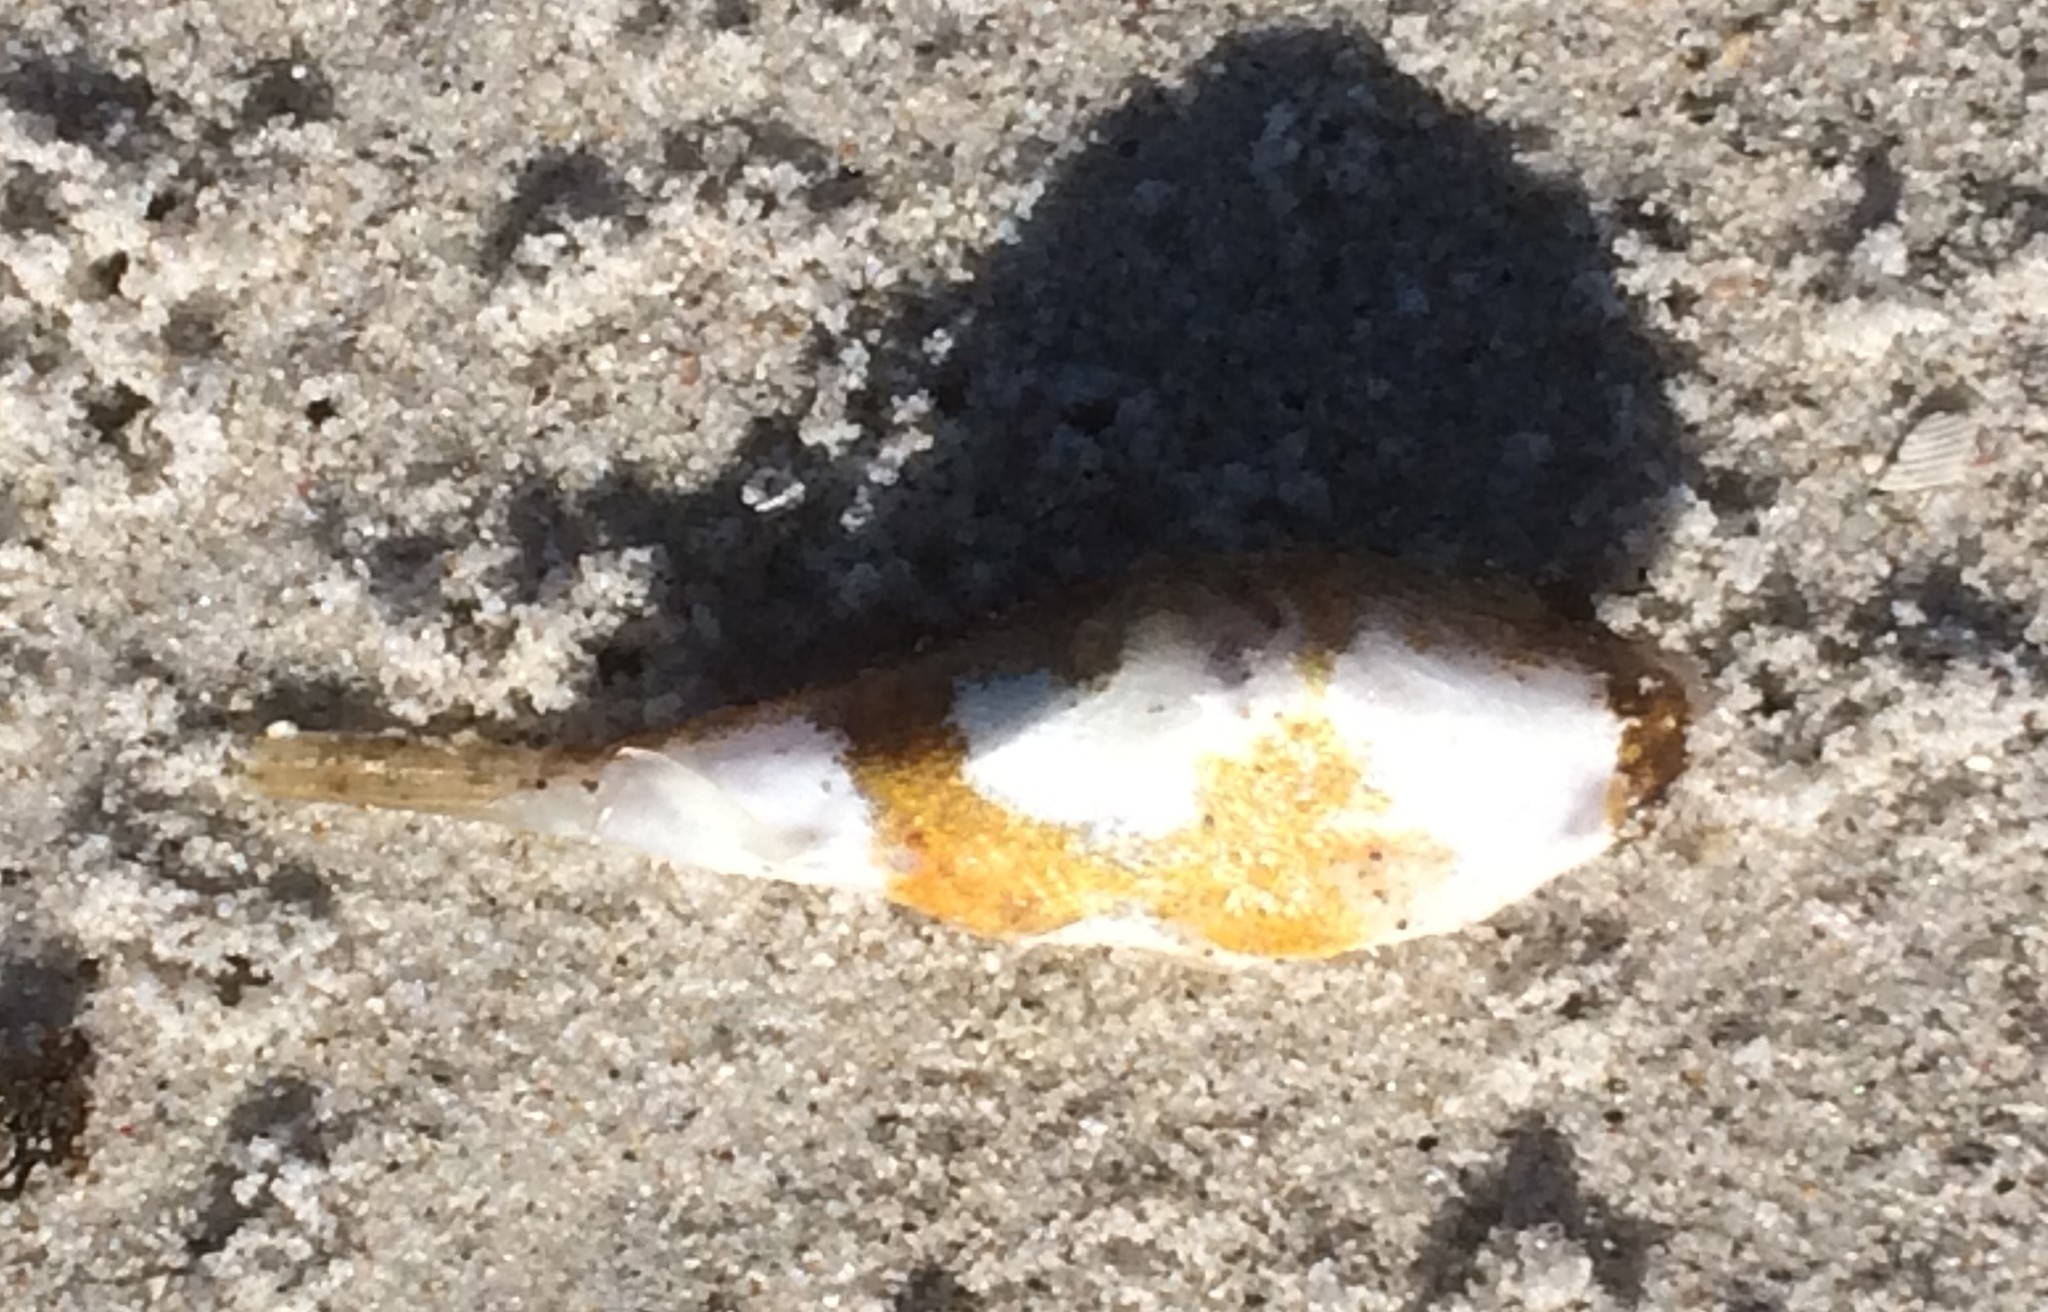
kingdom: Animalia
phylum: Chordata
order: Tetraodontiformes
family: Tetraodontidae
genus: Polyspina
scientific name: Polyspina piosae
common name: Orange-barred pufferfish
